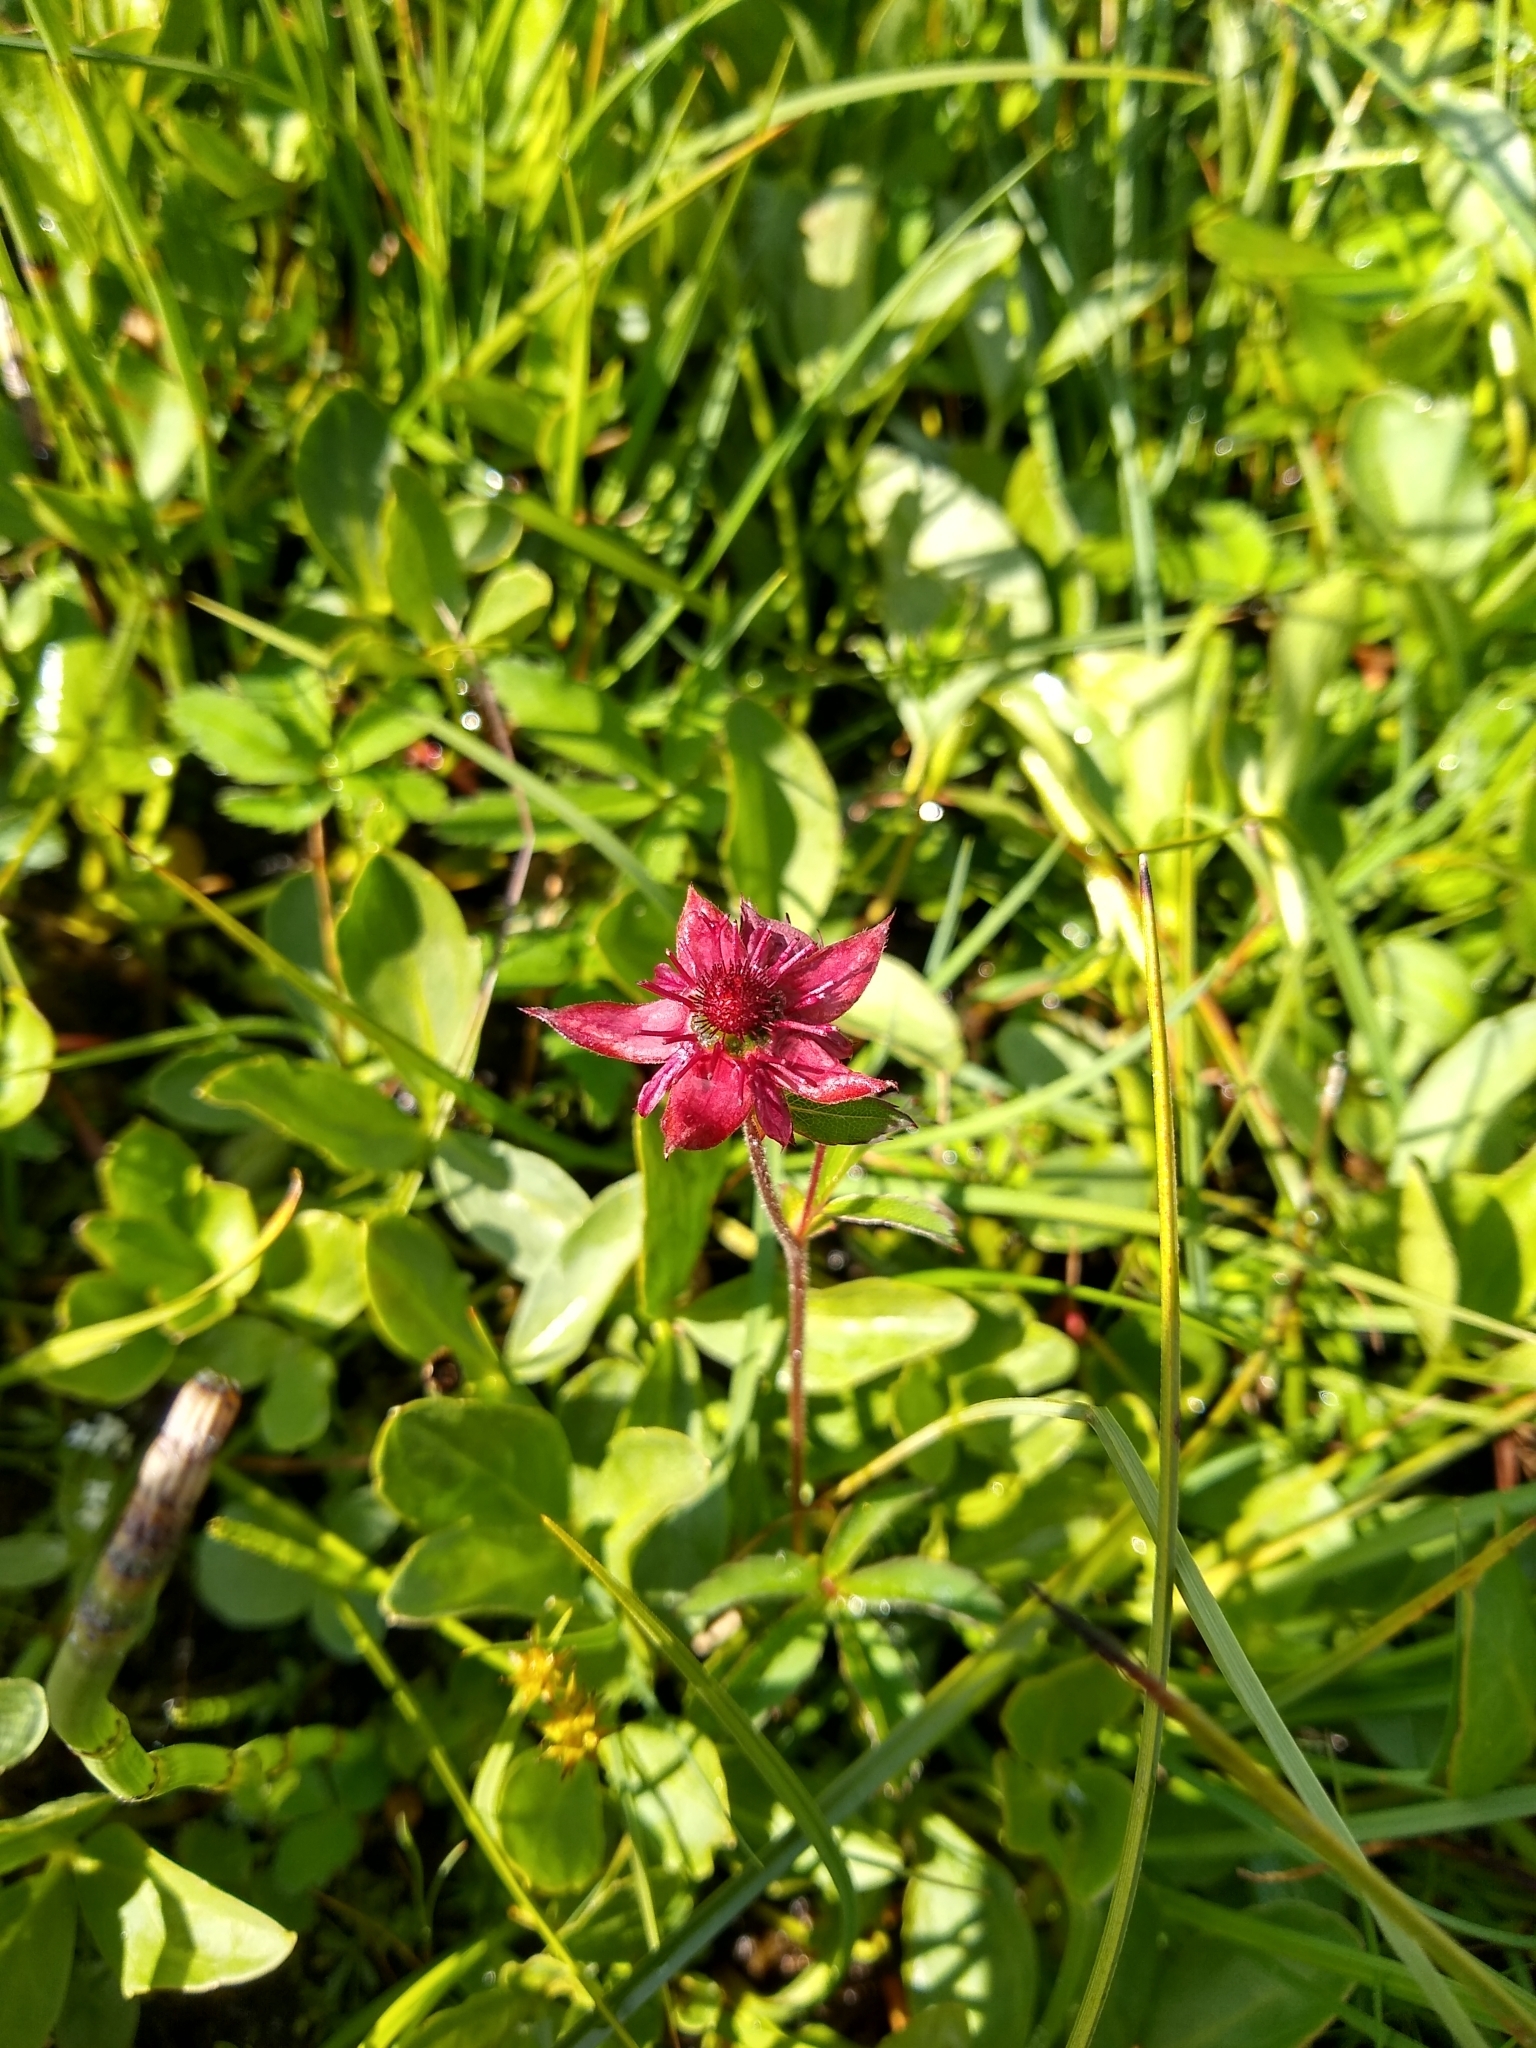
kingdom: Plantae
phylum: Tracheophyta
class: Magnoliopsida
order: Rosales
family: Rosaceae
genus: Comarum
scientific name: Comarum palustre
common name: Marsh cinquefoil
